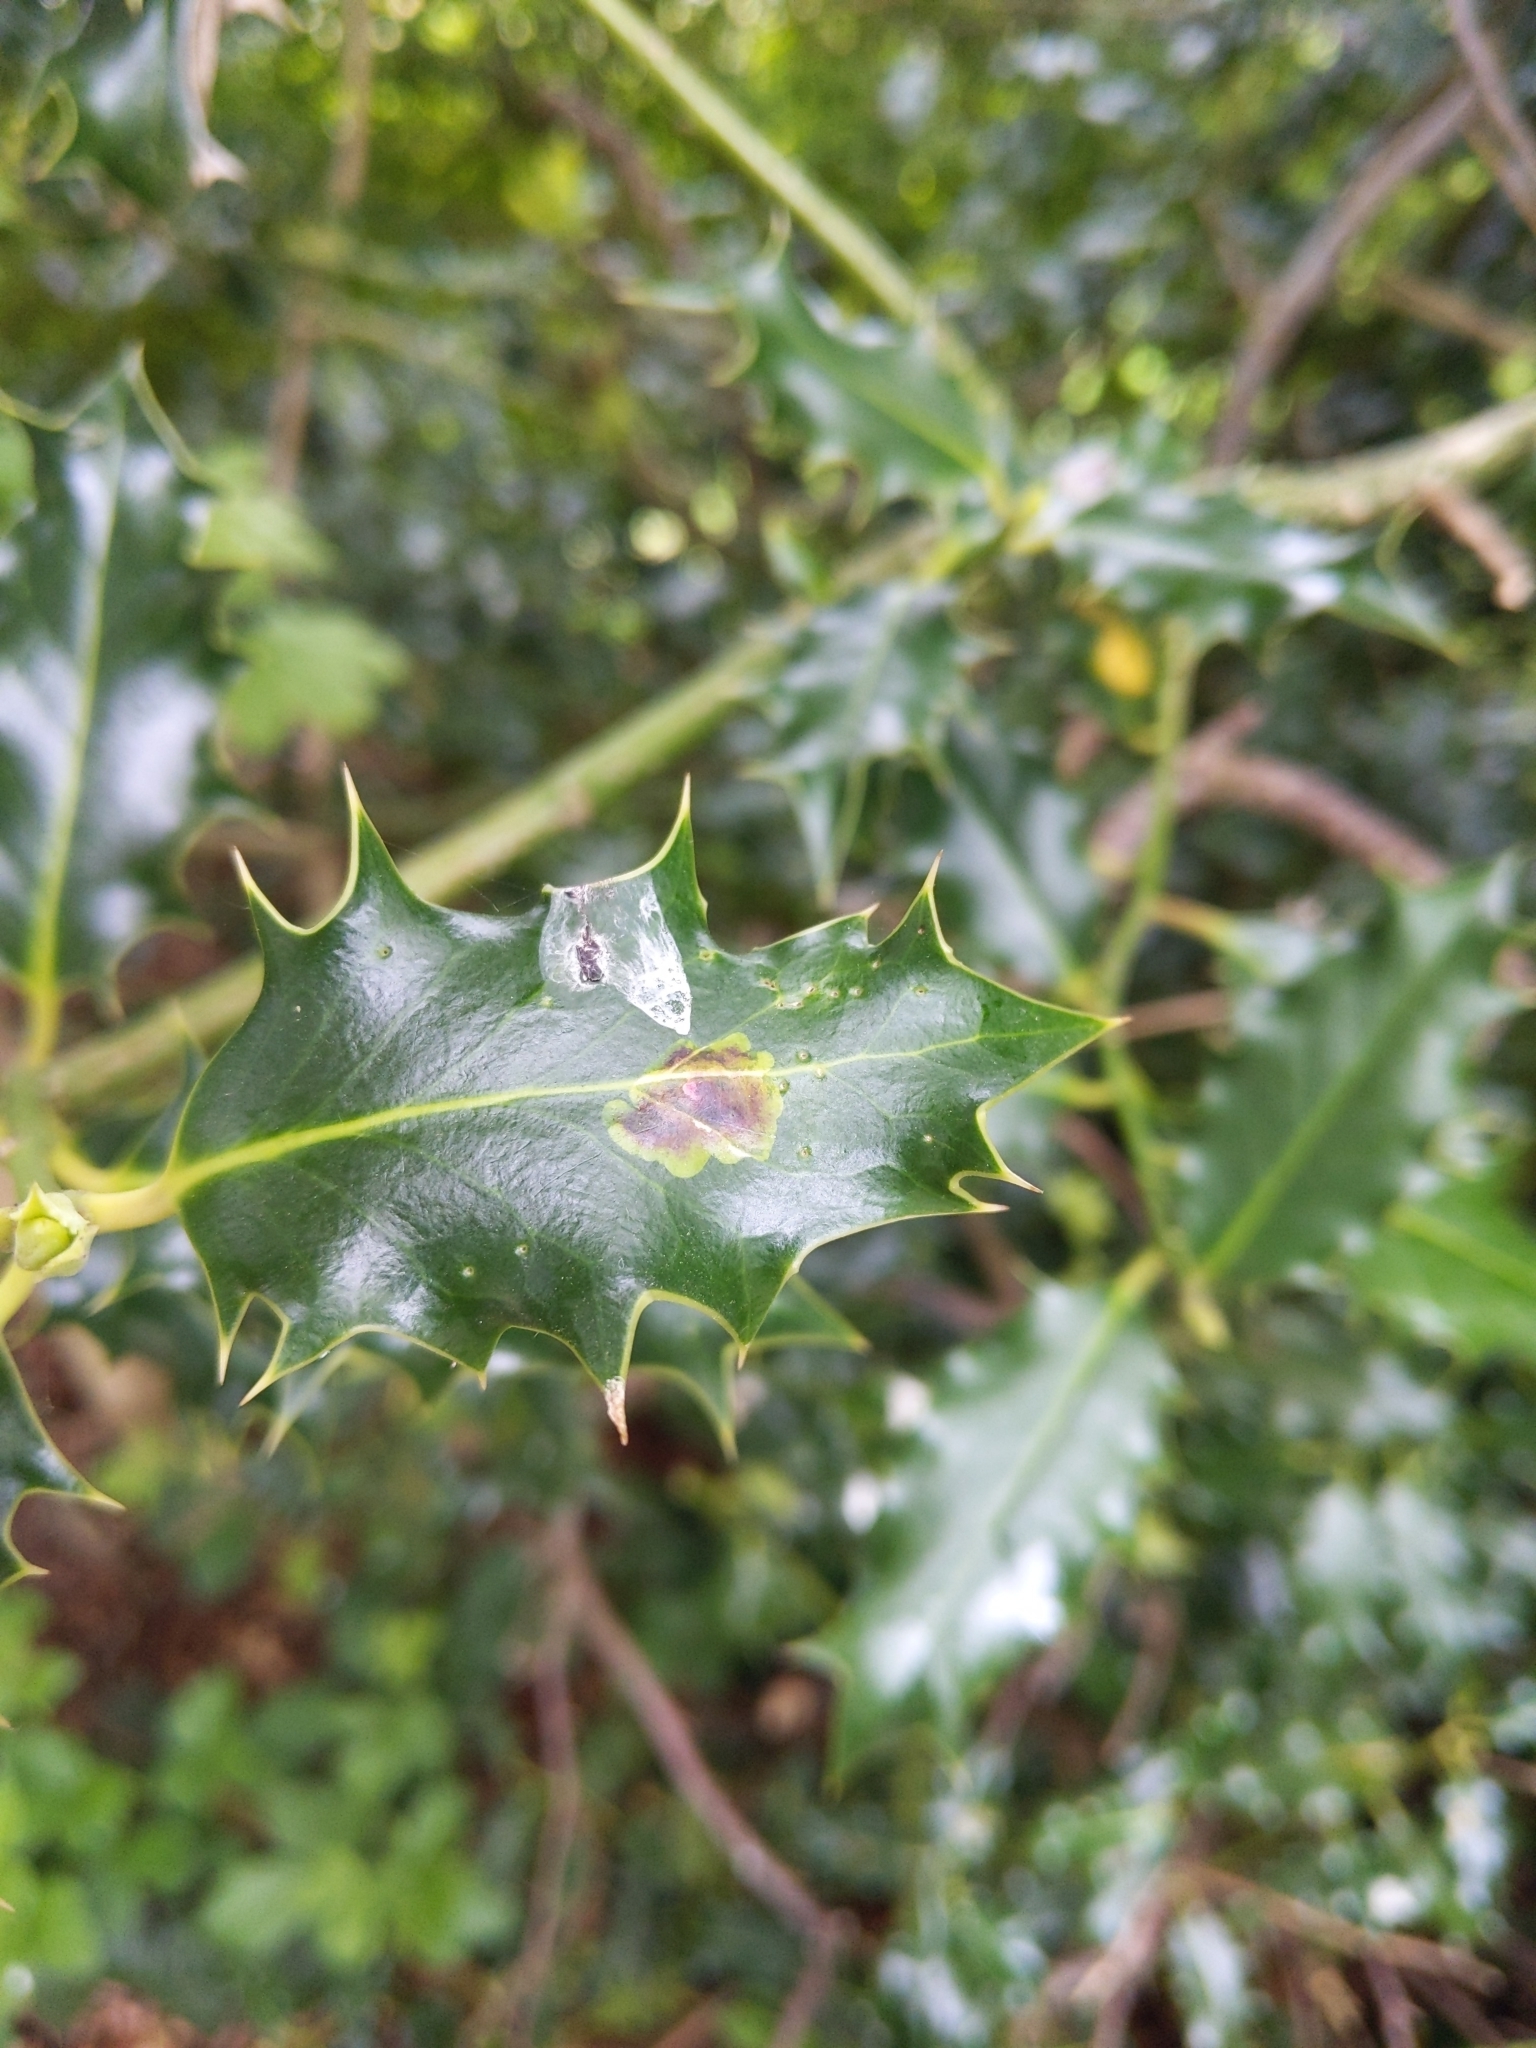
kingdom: Animalia
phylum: Arthropoda
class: Insecta
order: Diptera
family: Agromyzidae
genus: Phytomyza
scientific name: Phytomyza ilicis
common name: Holly leafminer
